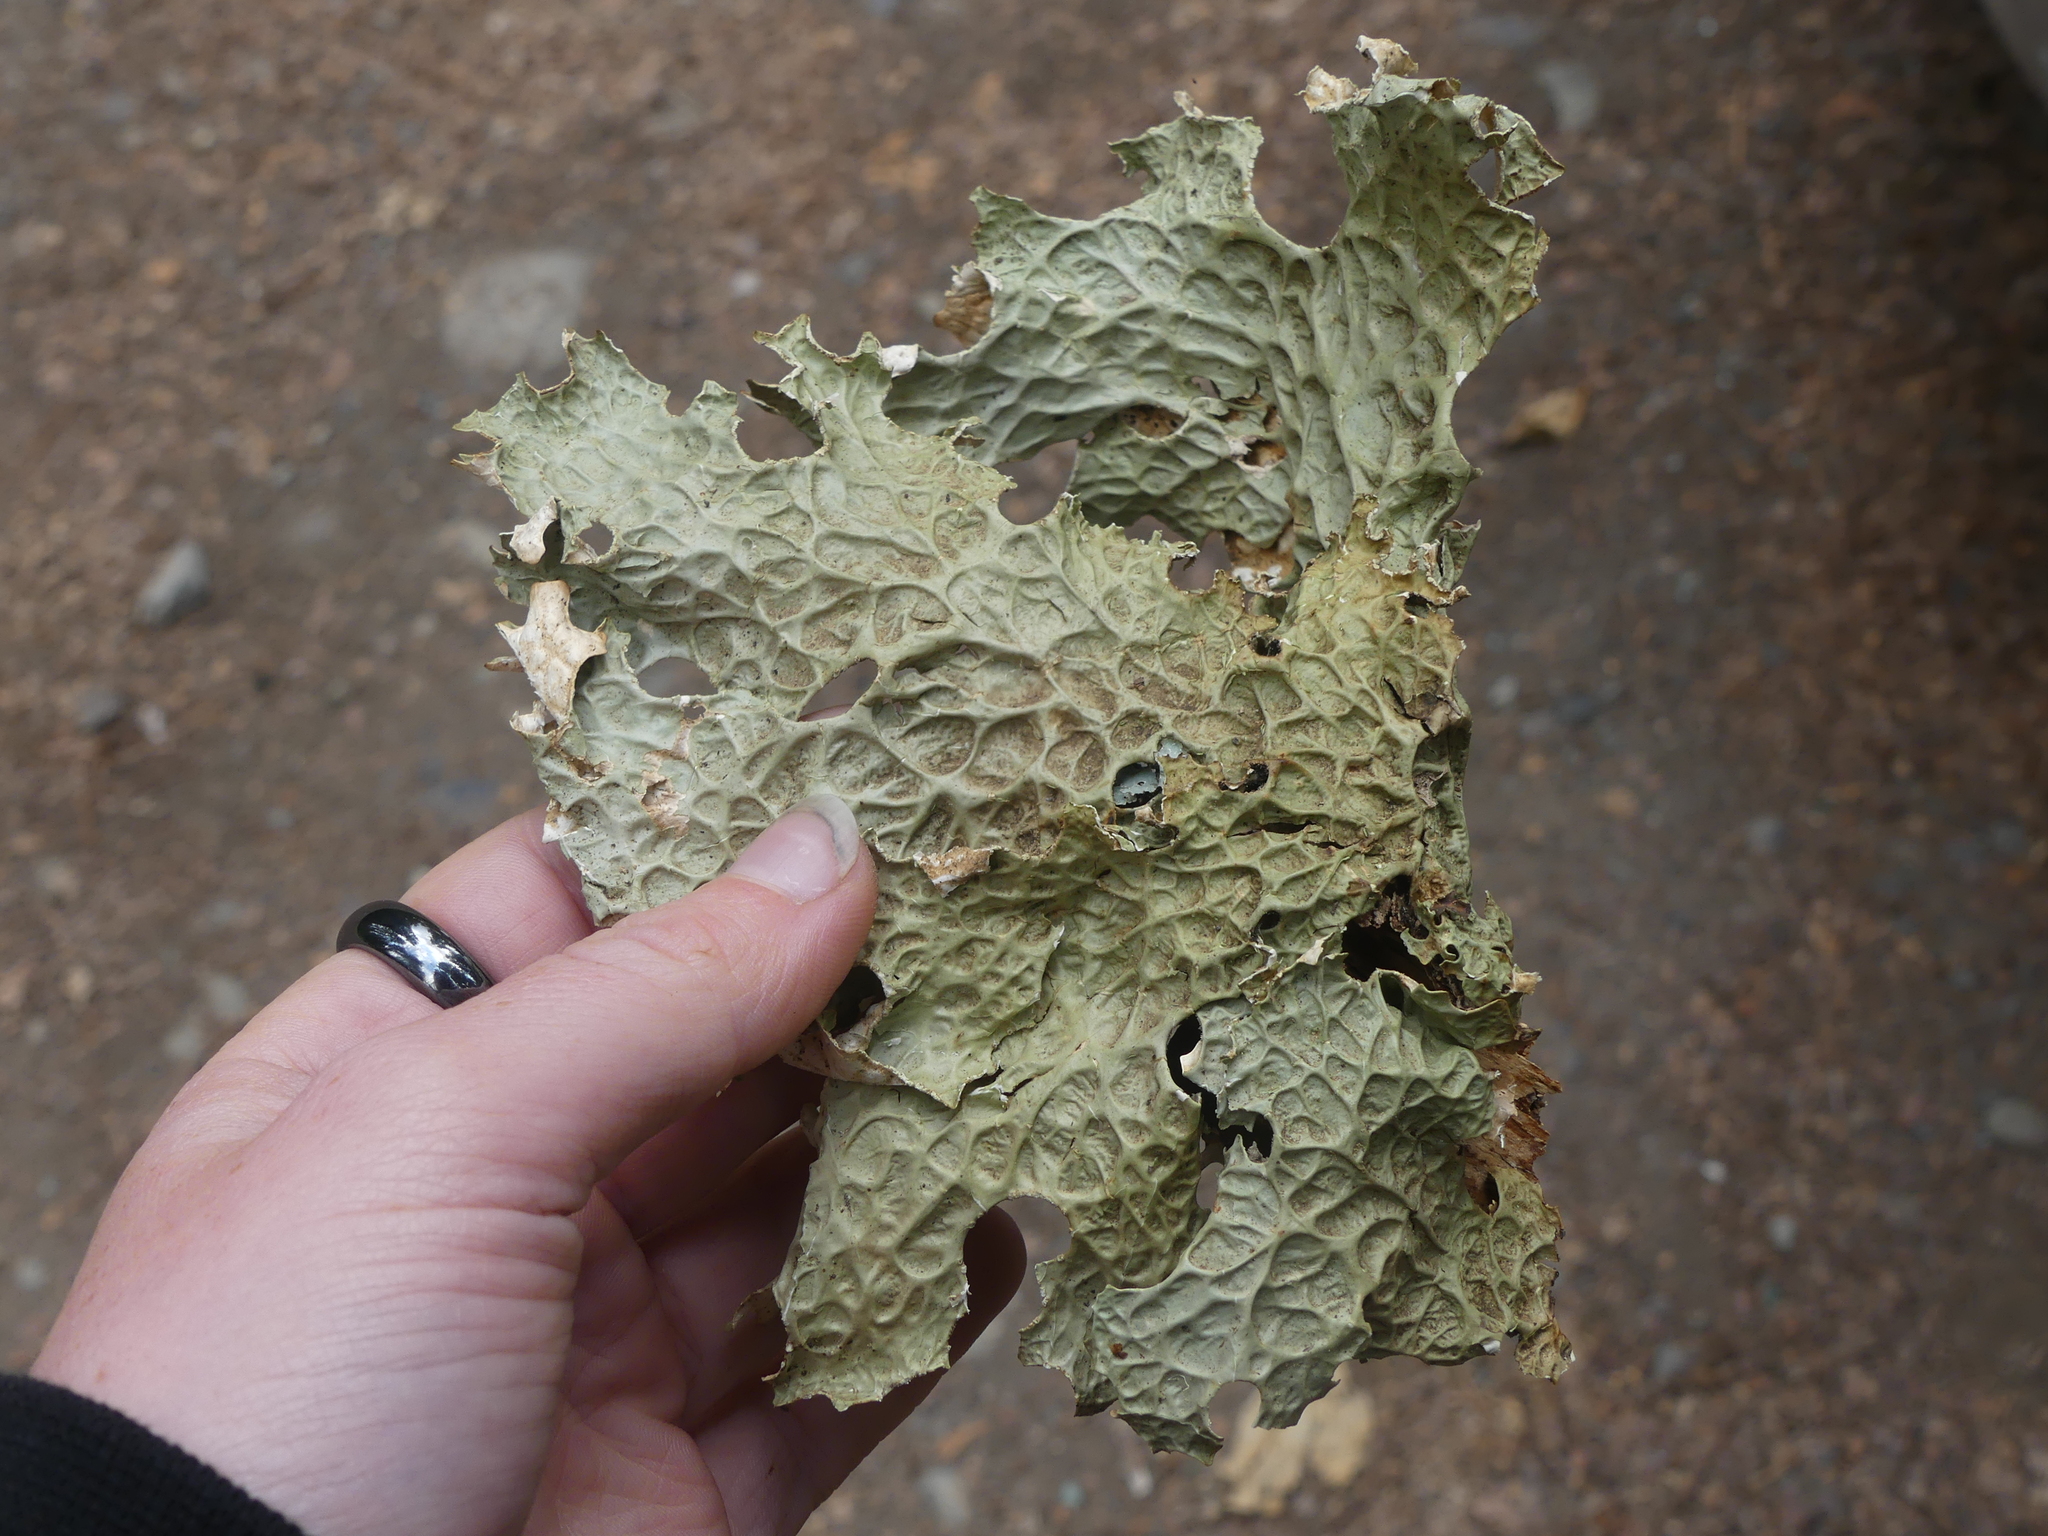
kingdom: Fungi
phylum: Ascomycota
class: Lecanoromycetes
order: Peltigerales
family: Lobariaceae
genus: Lobaria
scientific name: Lobaria pulmonaria
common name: Lungwort
